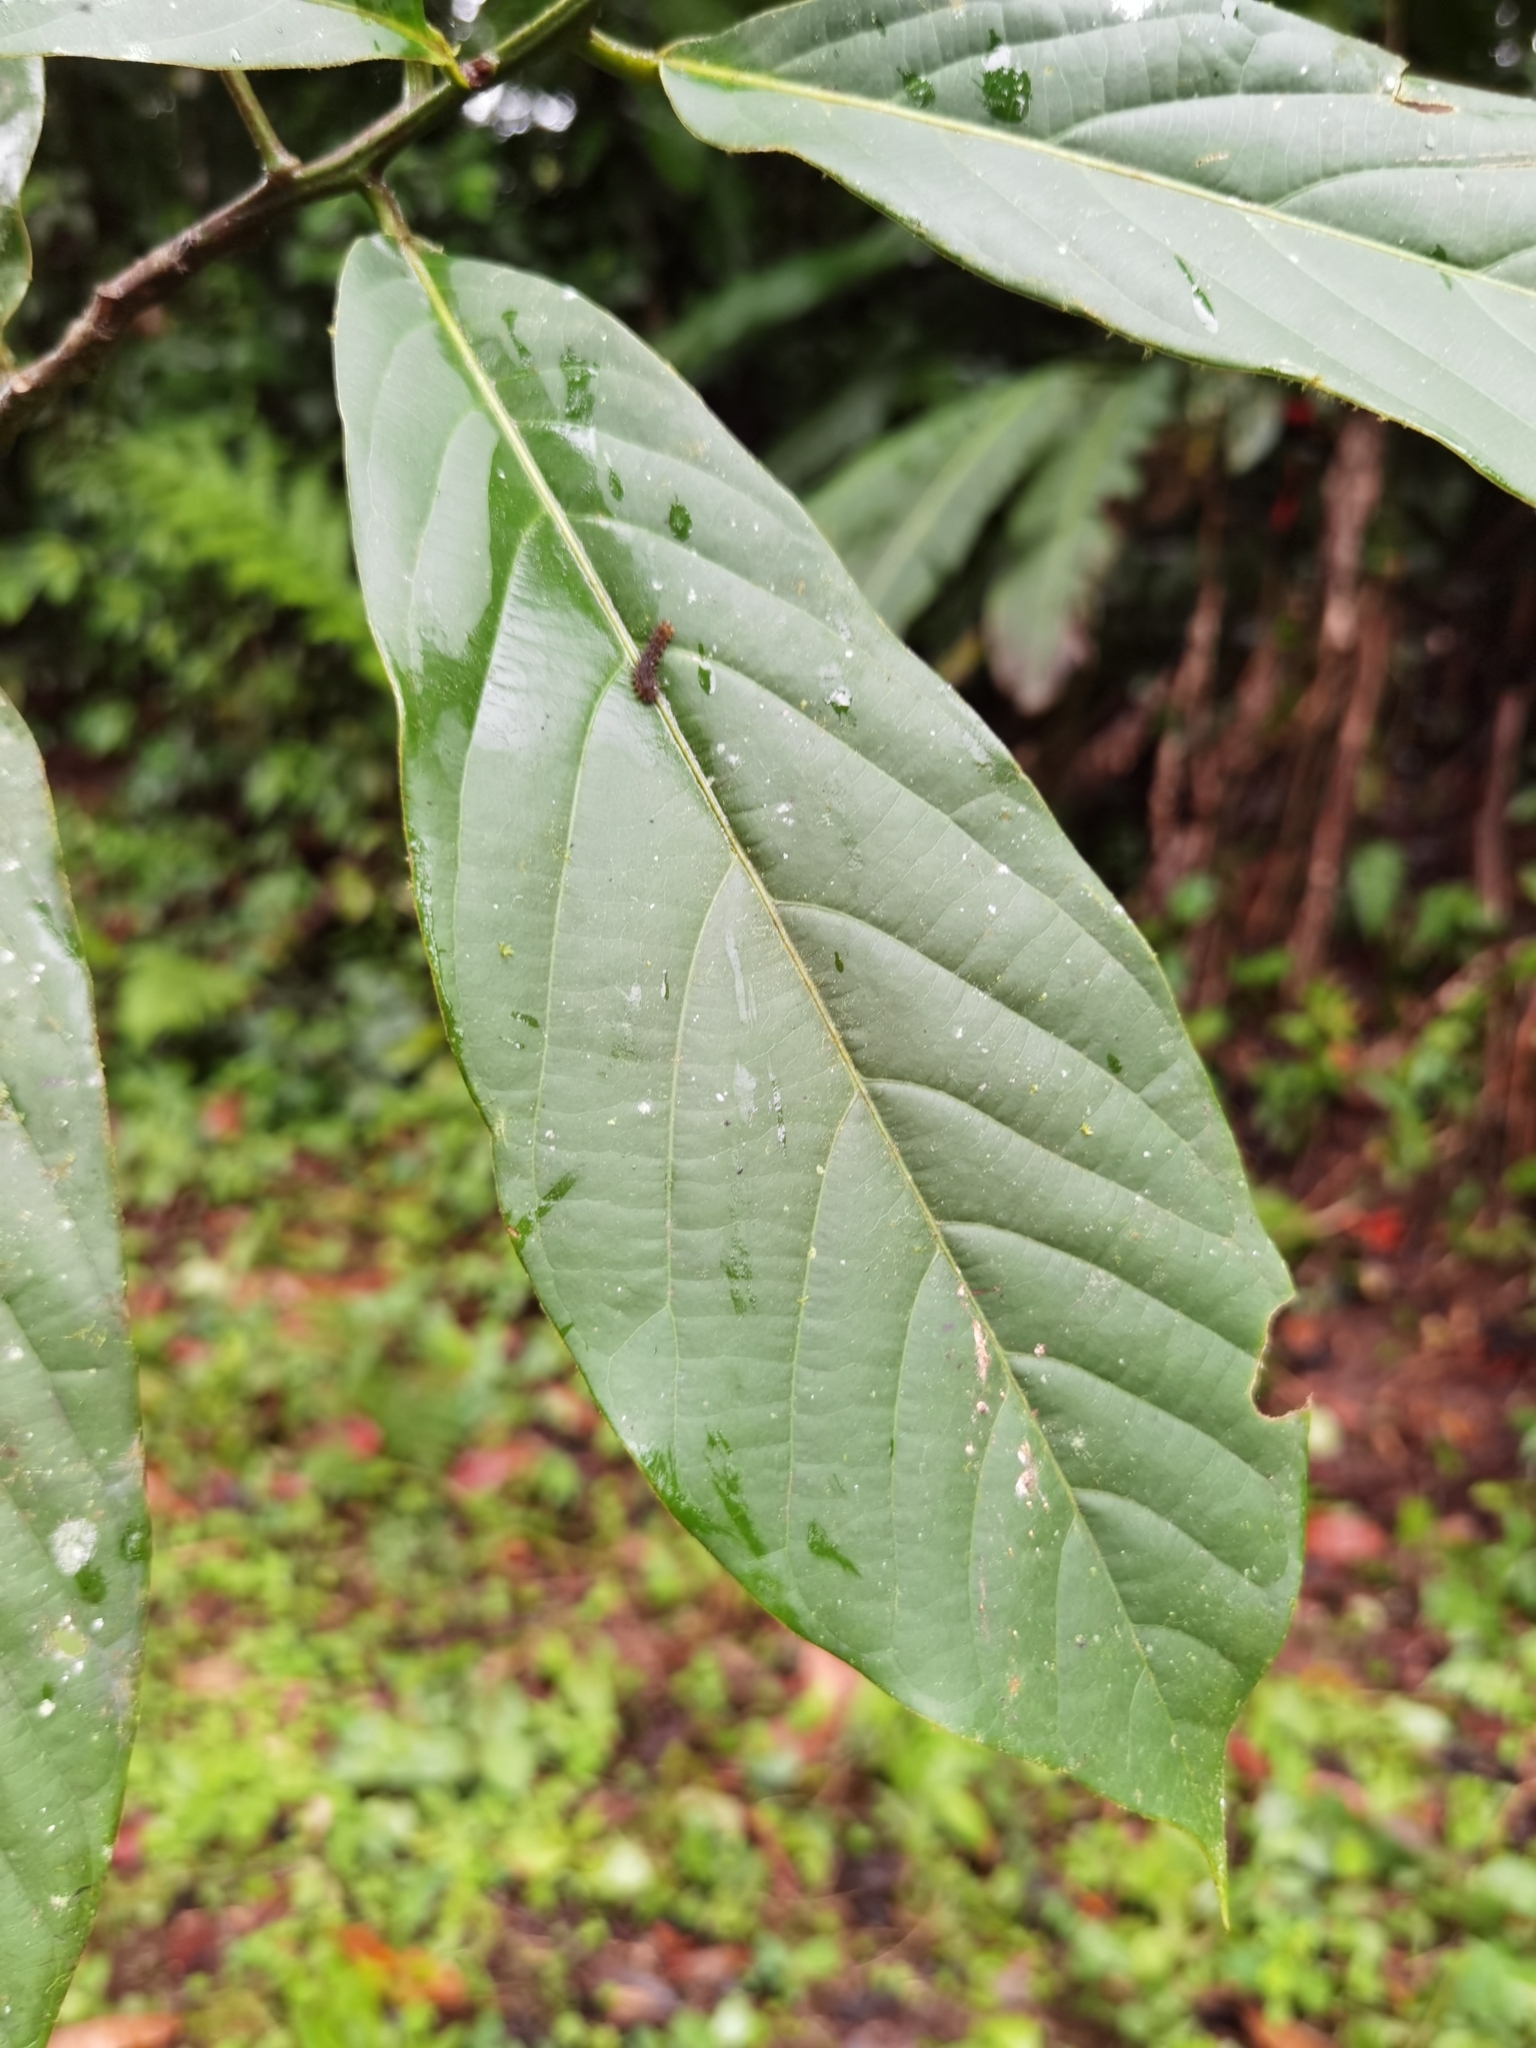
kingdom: Plantae
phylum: Tracheophyta
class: Magnoliopsida
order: Laurales
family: Lauraceae
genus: Ocotea
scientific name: Ocotea atirrensis
